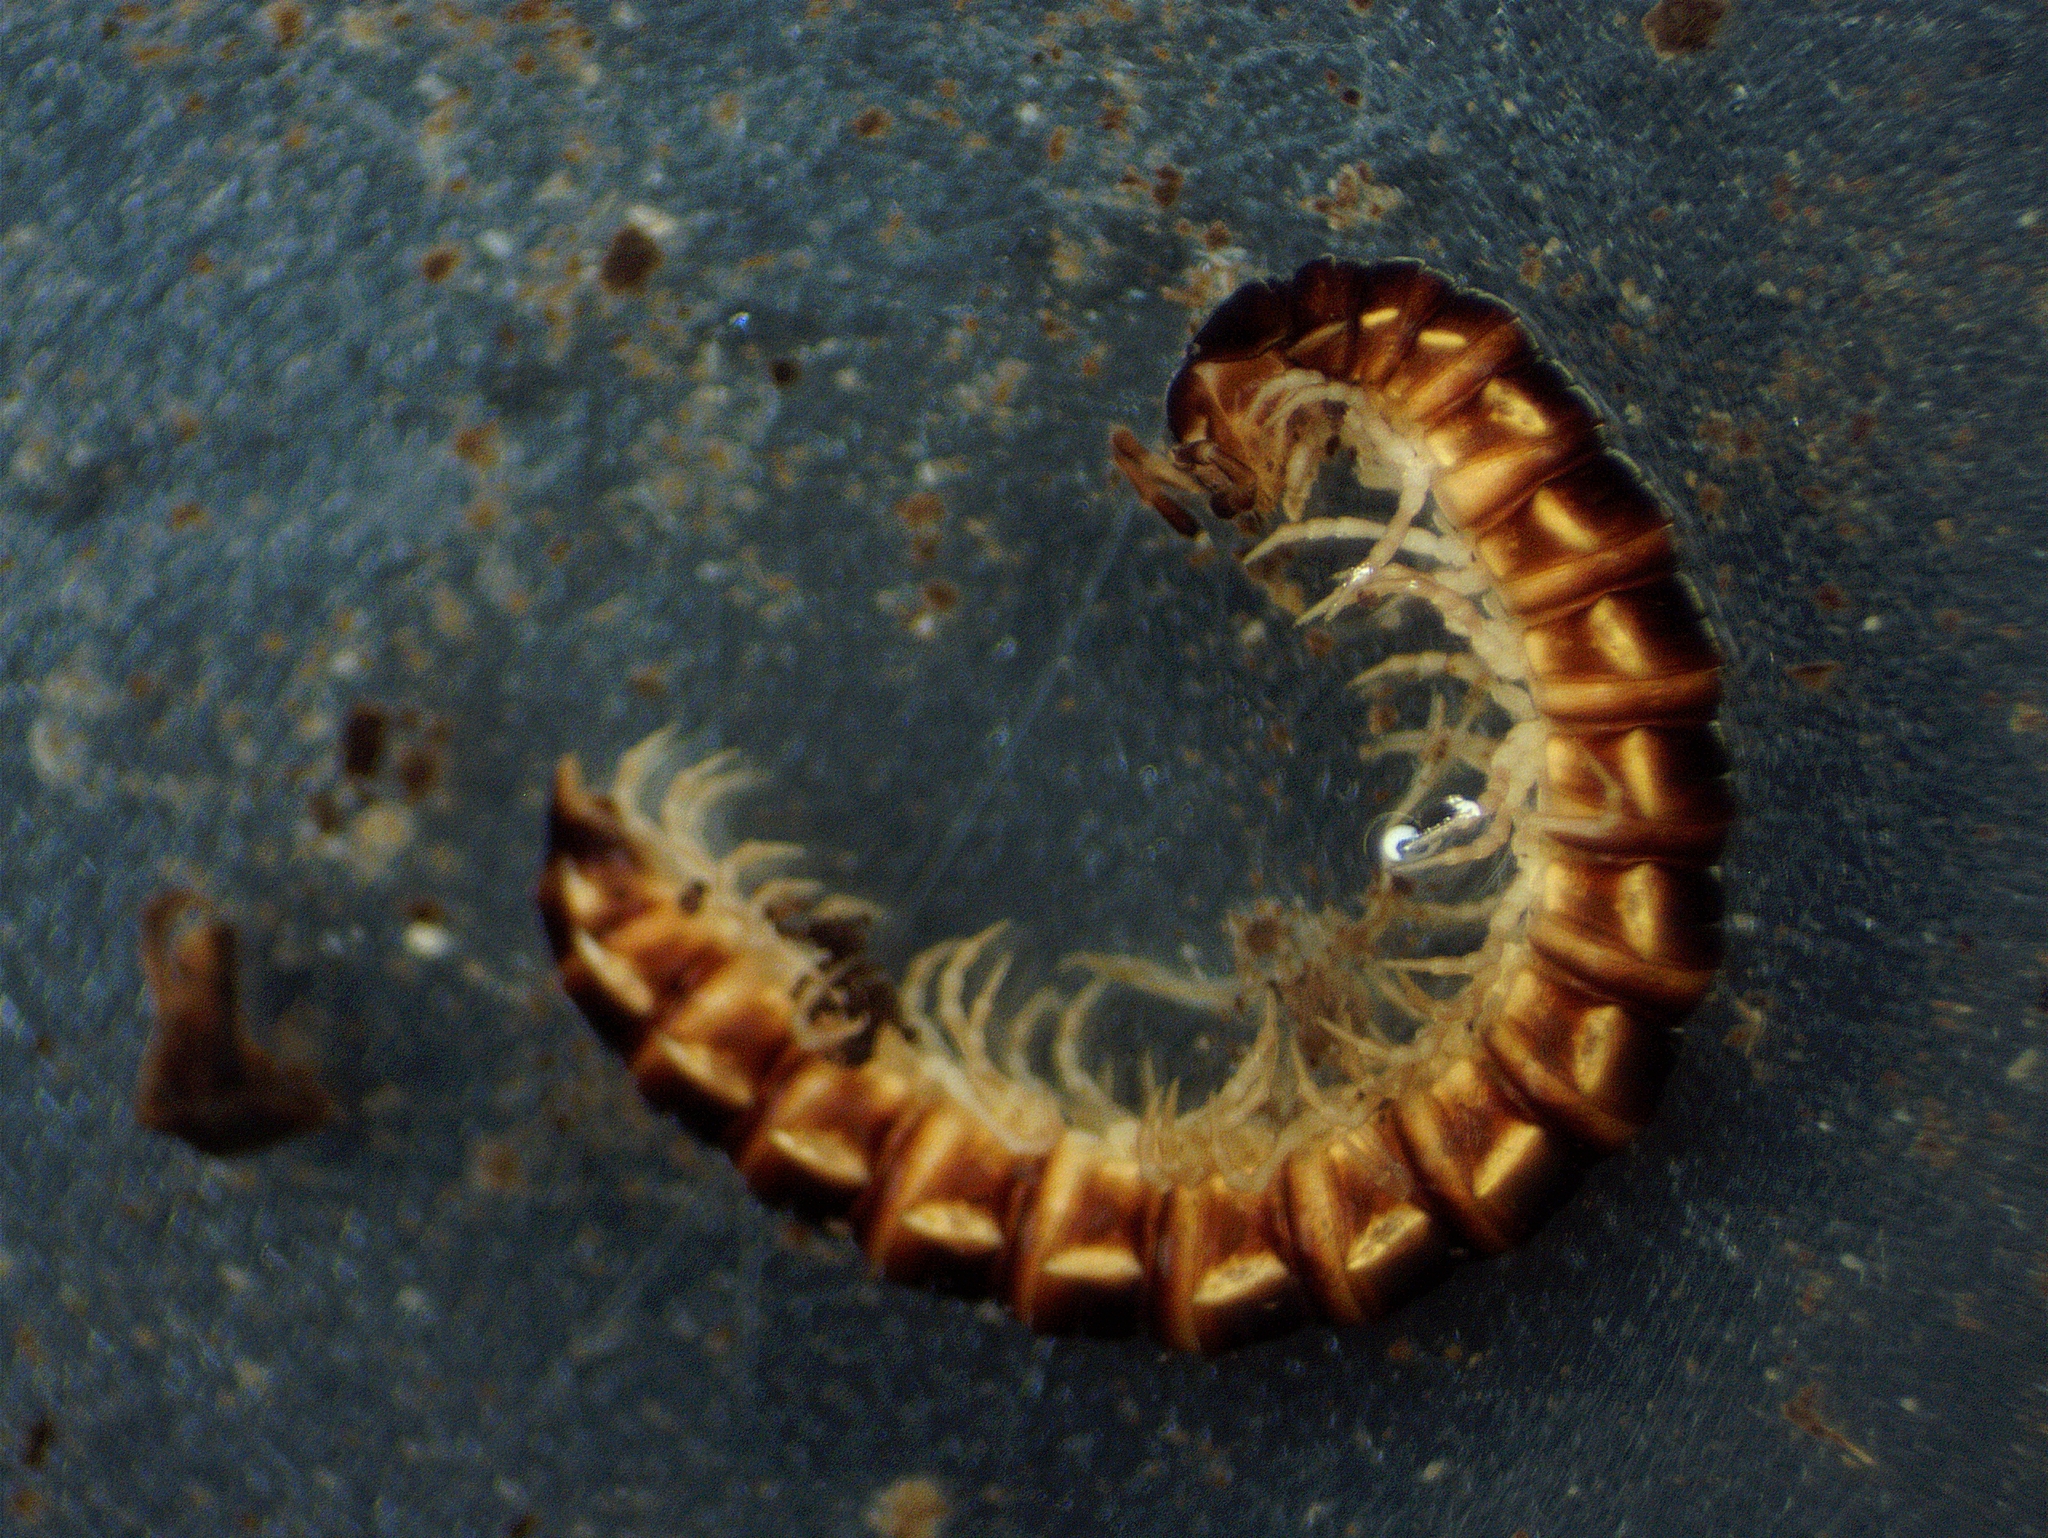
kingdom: Animalia
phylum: Arthropoda
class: Diplopoda
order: Polydesmida
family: Paradoxosomatidae
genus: Oxidus
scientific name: Oxidus gracilis
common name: Greenhouse millipede
